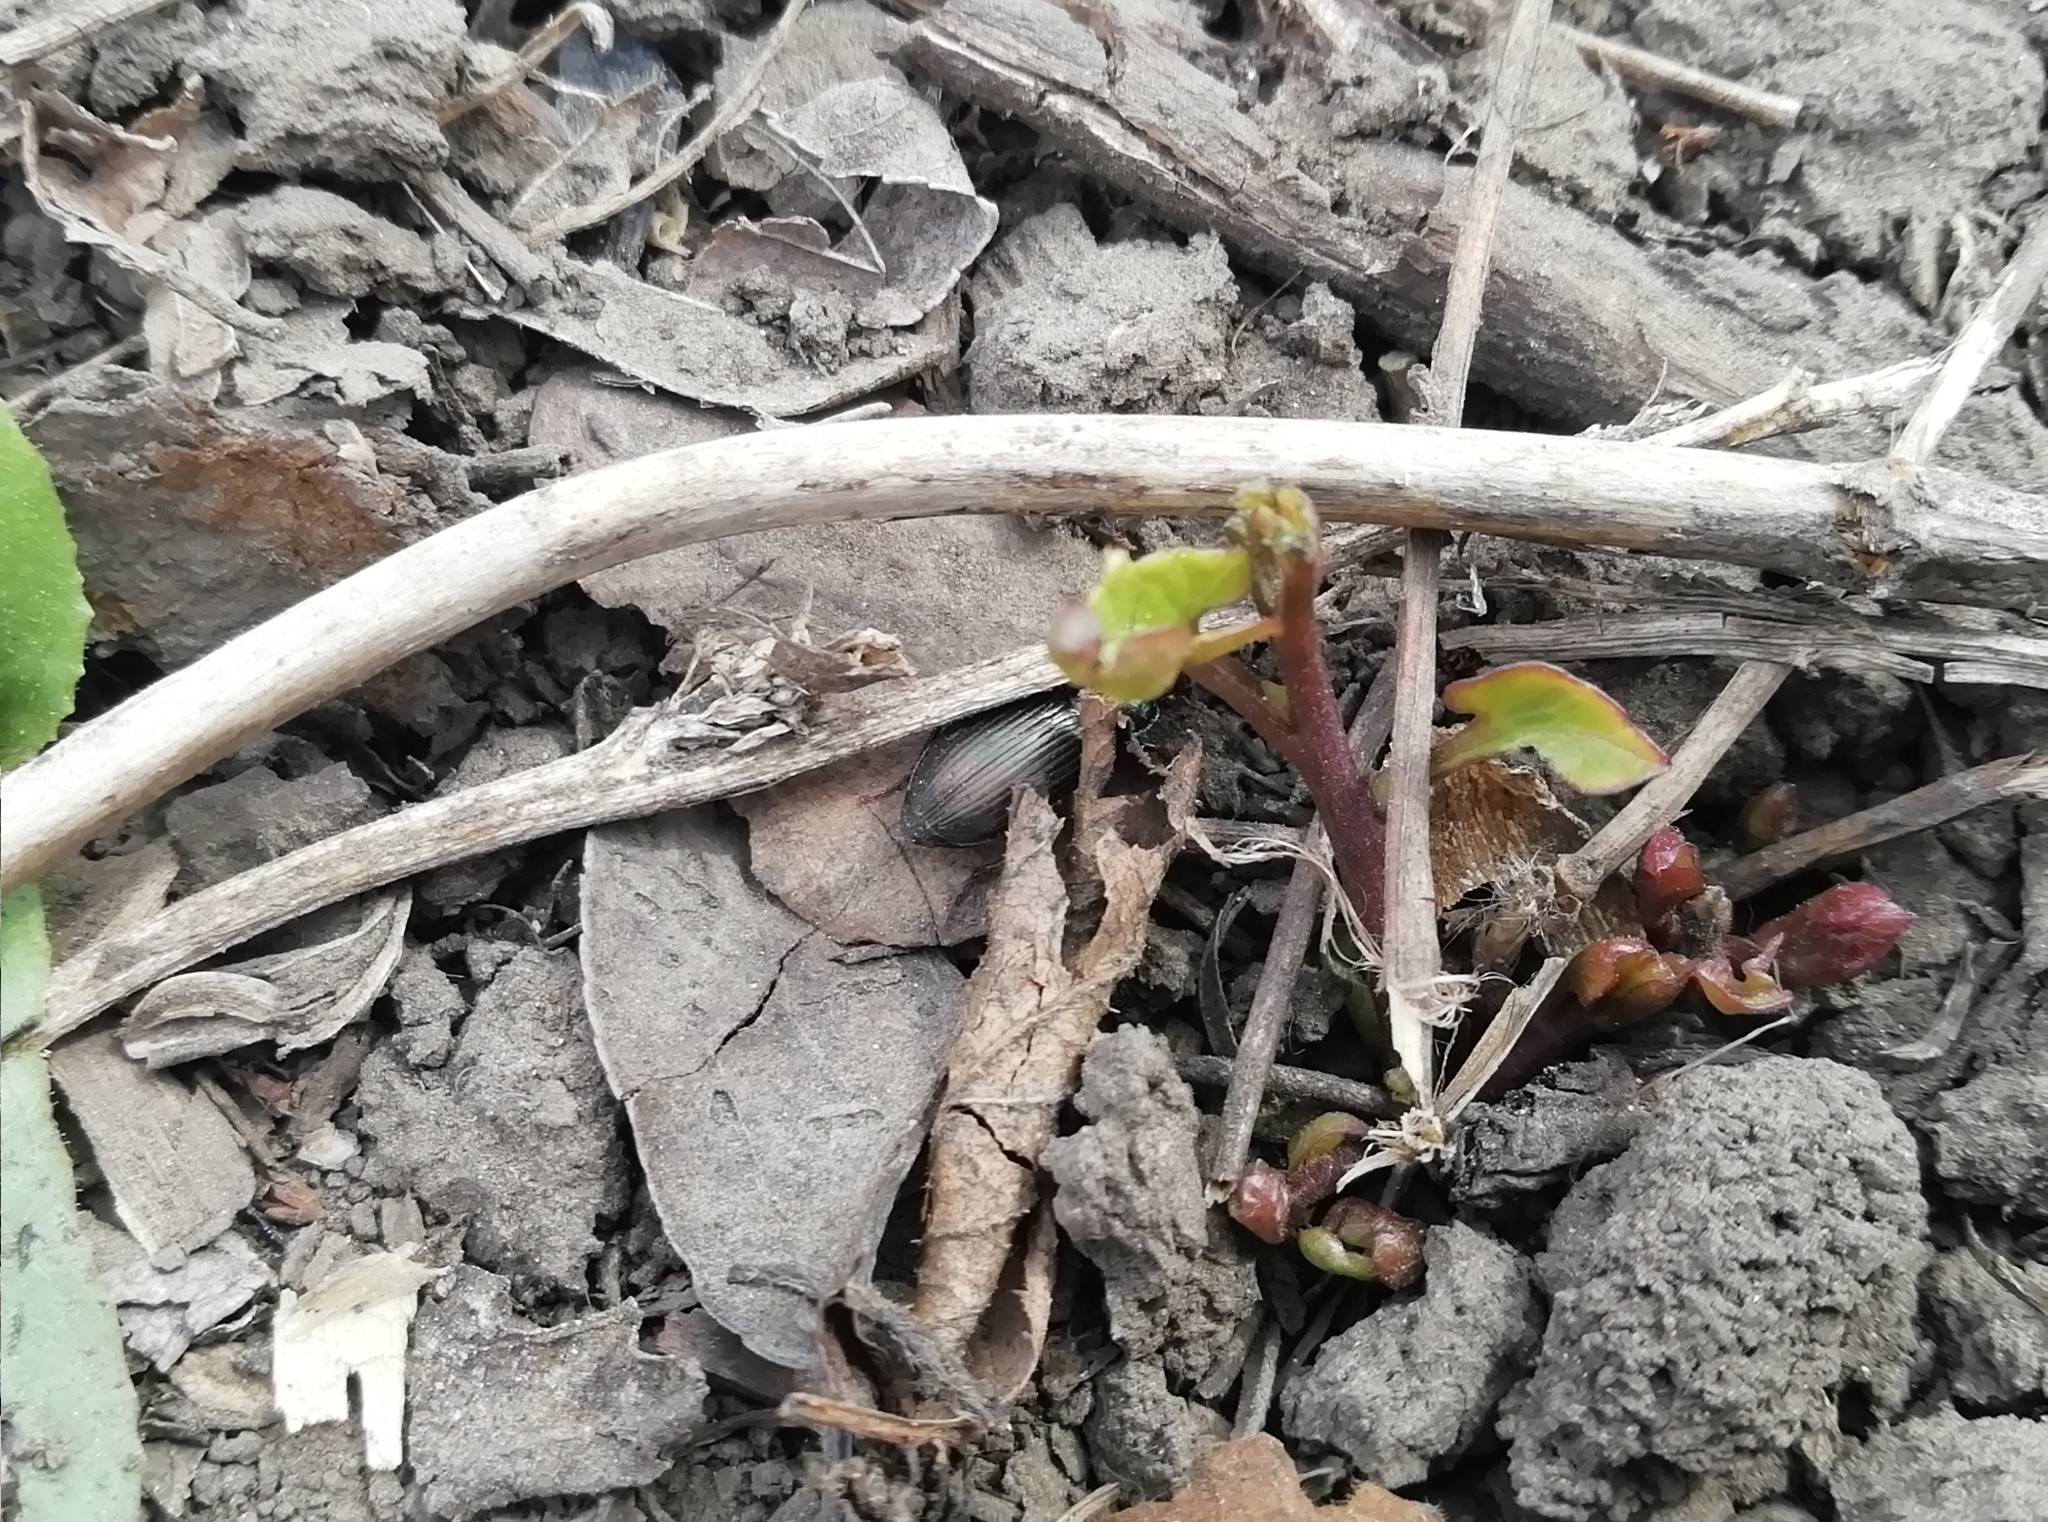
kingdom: Animalia
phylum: Arthropoda
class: Insecta
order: Coleoptera
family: Carabidae
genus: Harpalus
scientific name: Harpalus affinis
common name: Polychrome harp ground beetle
